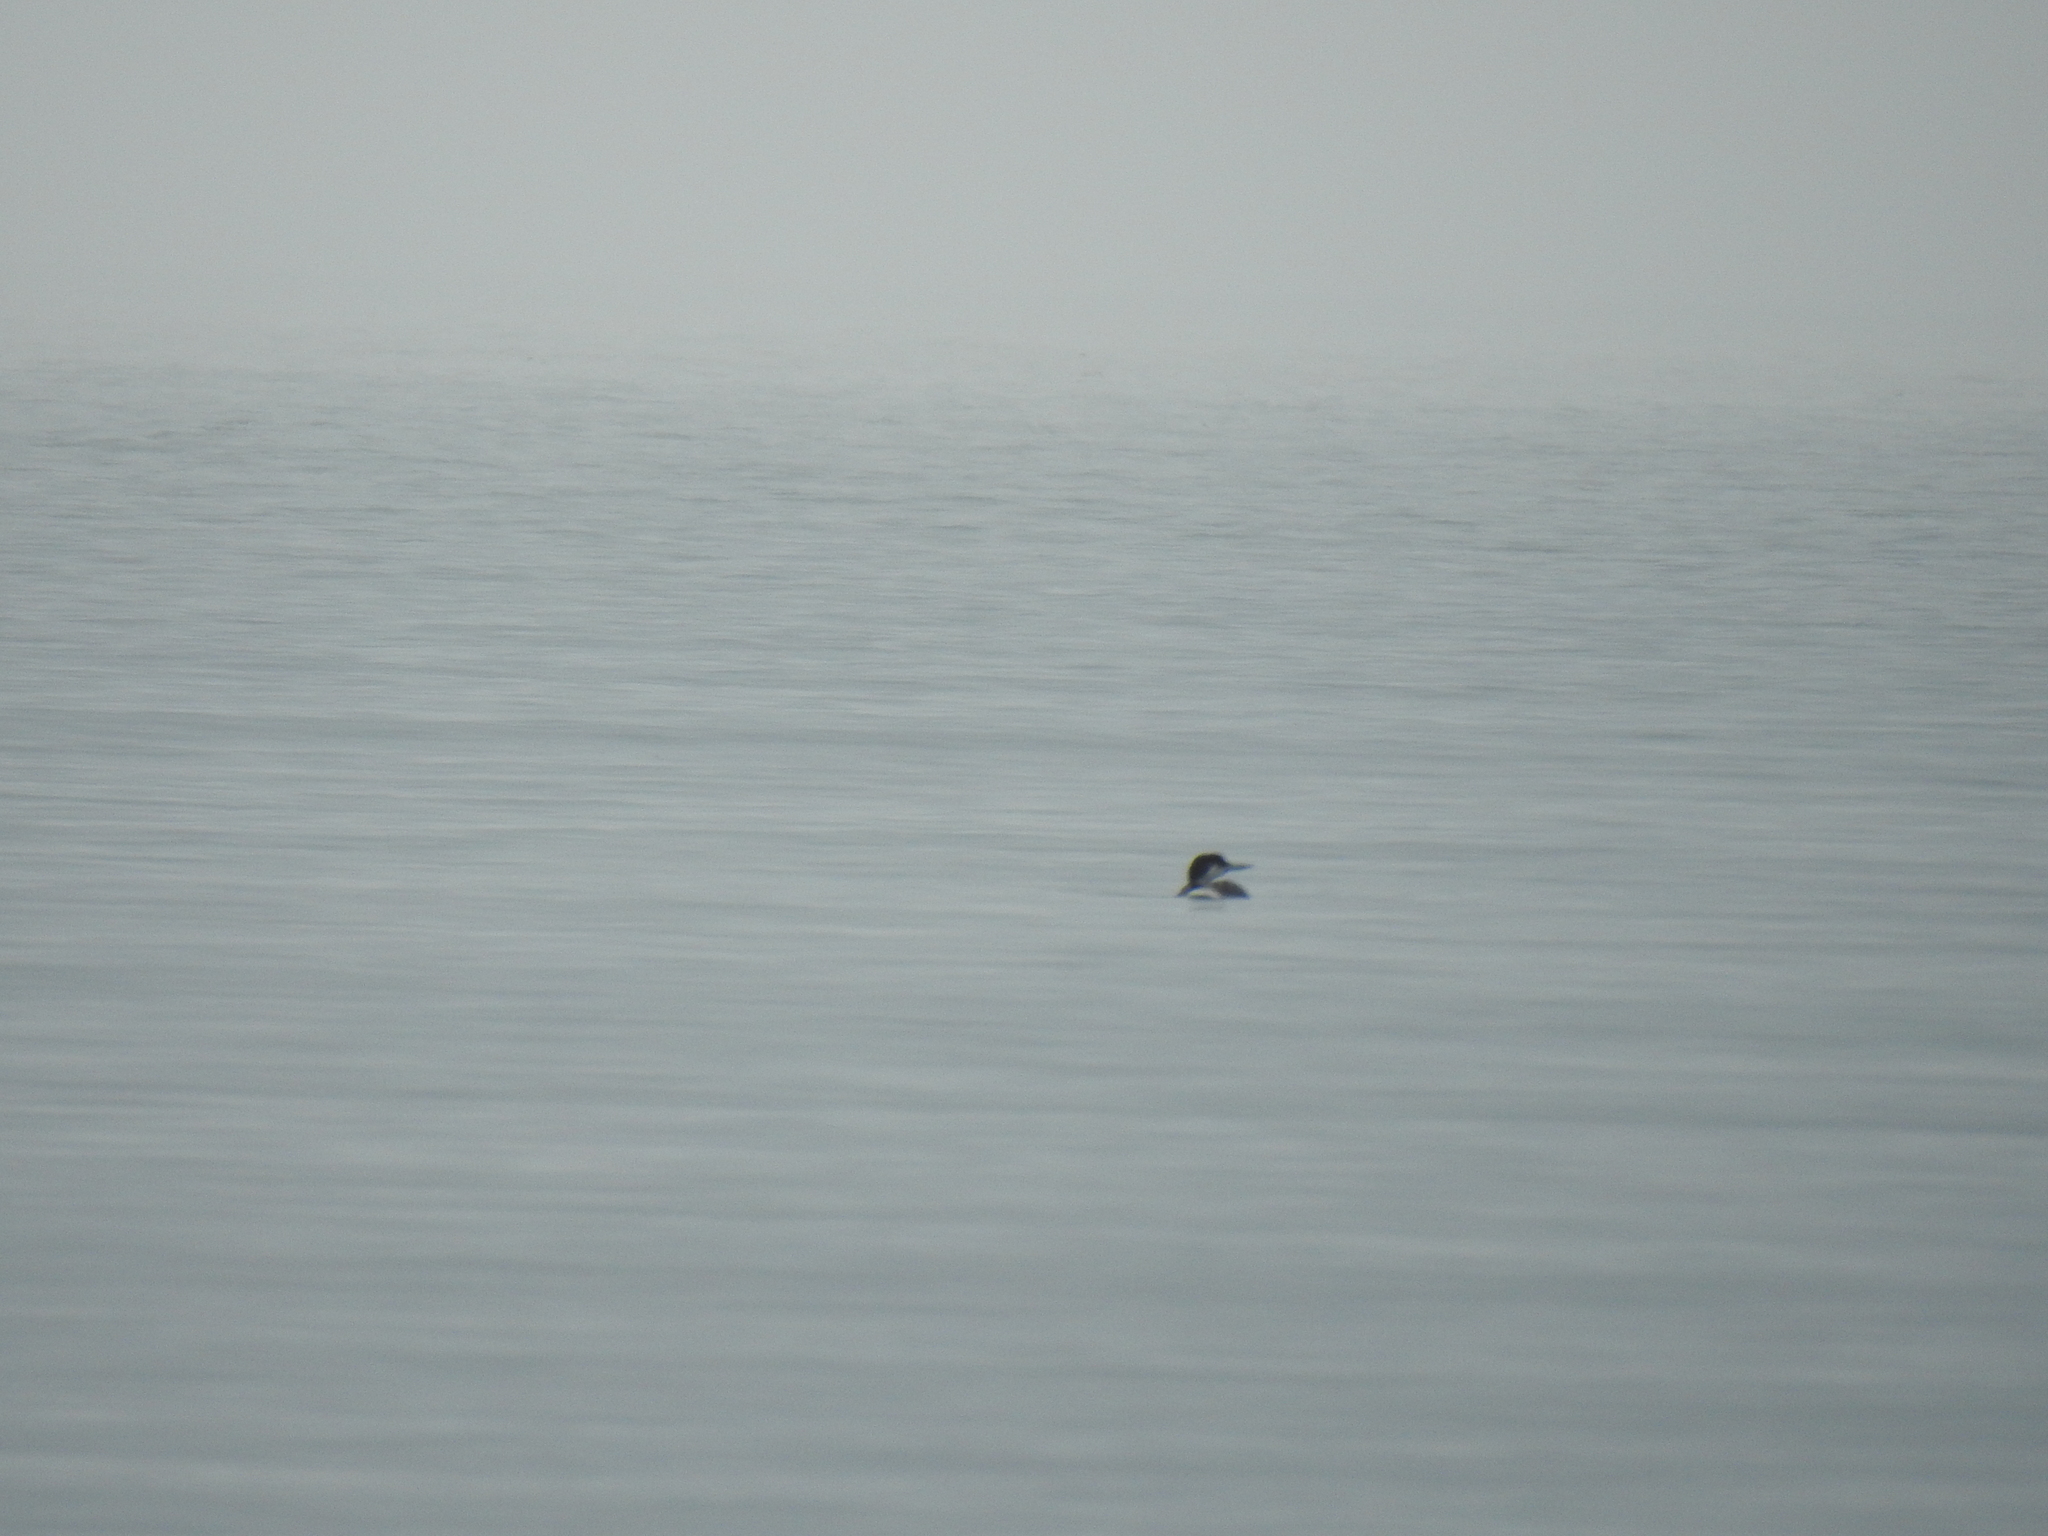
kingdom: Animalia
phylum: Chordata
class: Aves
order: Gaviiformes
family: Gaviidae
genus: Gavia
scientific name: Gavia immer
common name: Common loon
